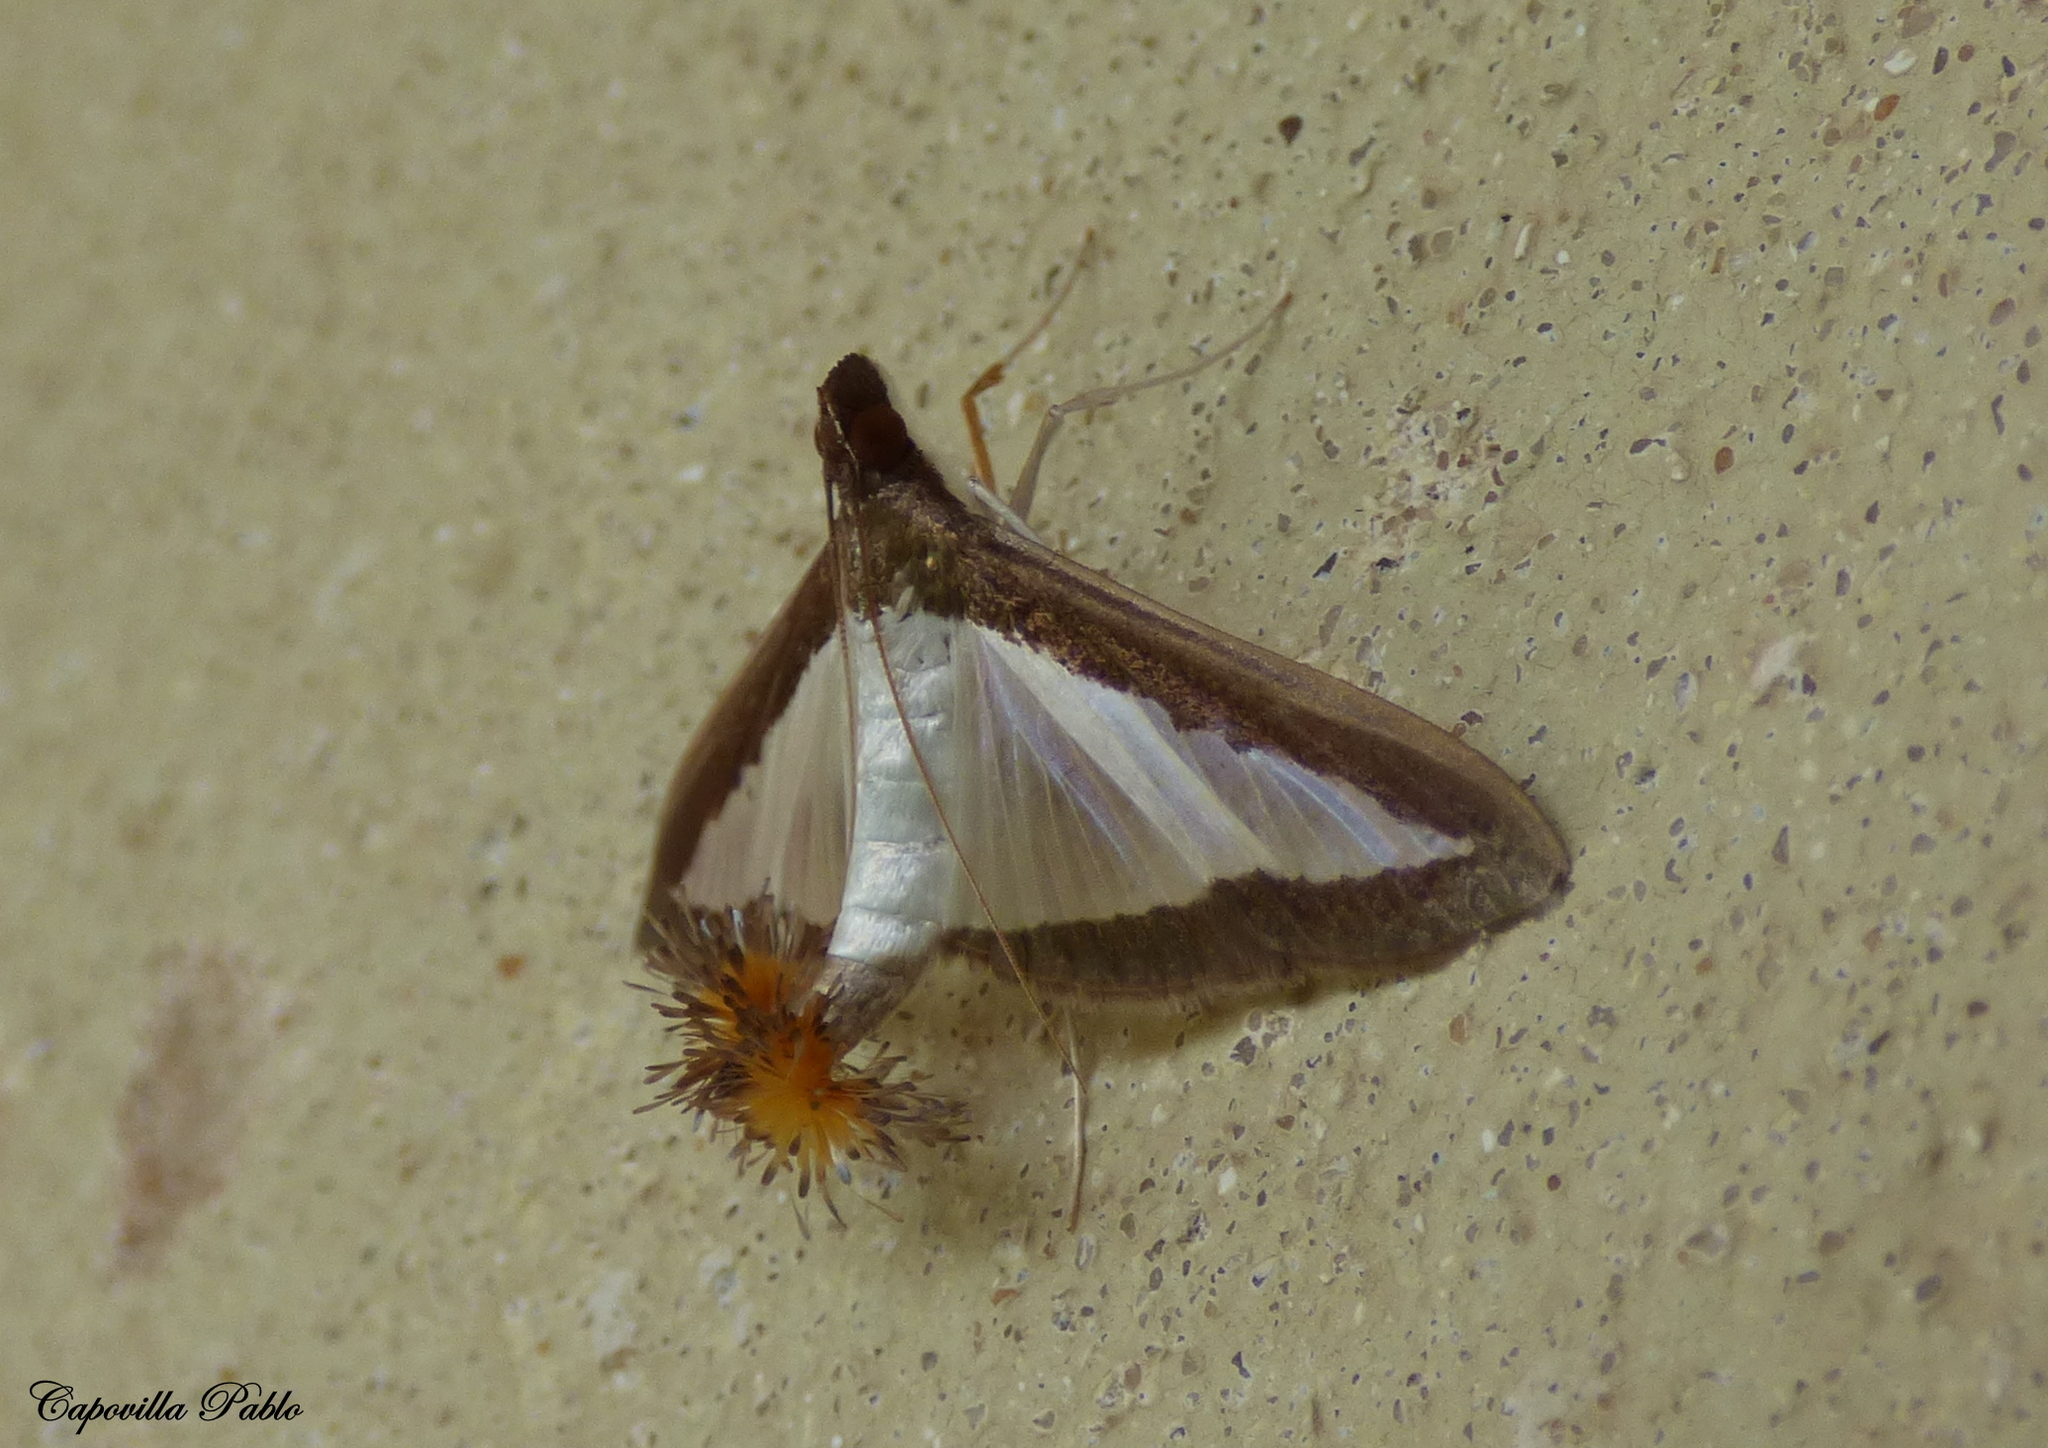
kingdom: Animalia
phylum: Arthropoda
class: Insecta
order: Lepidoptera
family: Crambidae
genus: Diaphania
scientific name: Diaphania hyalinata
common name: Melonworm
